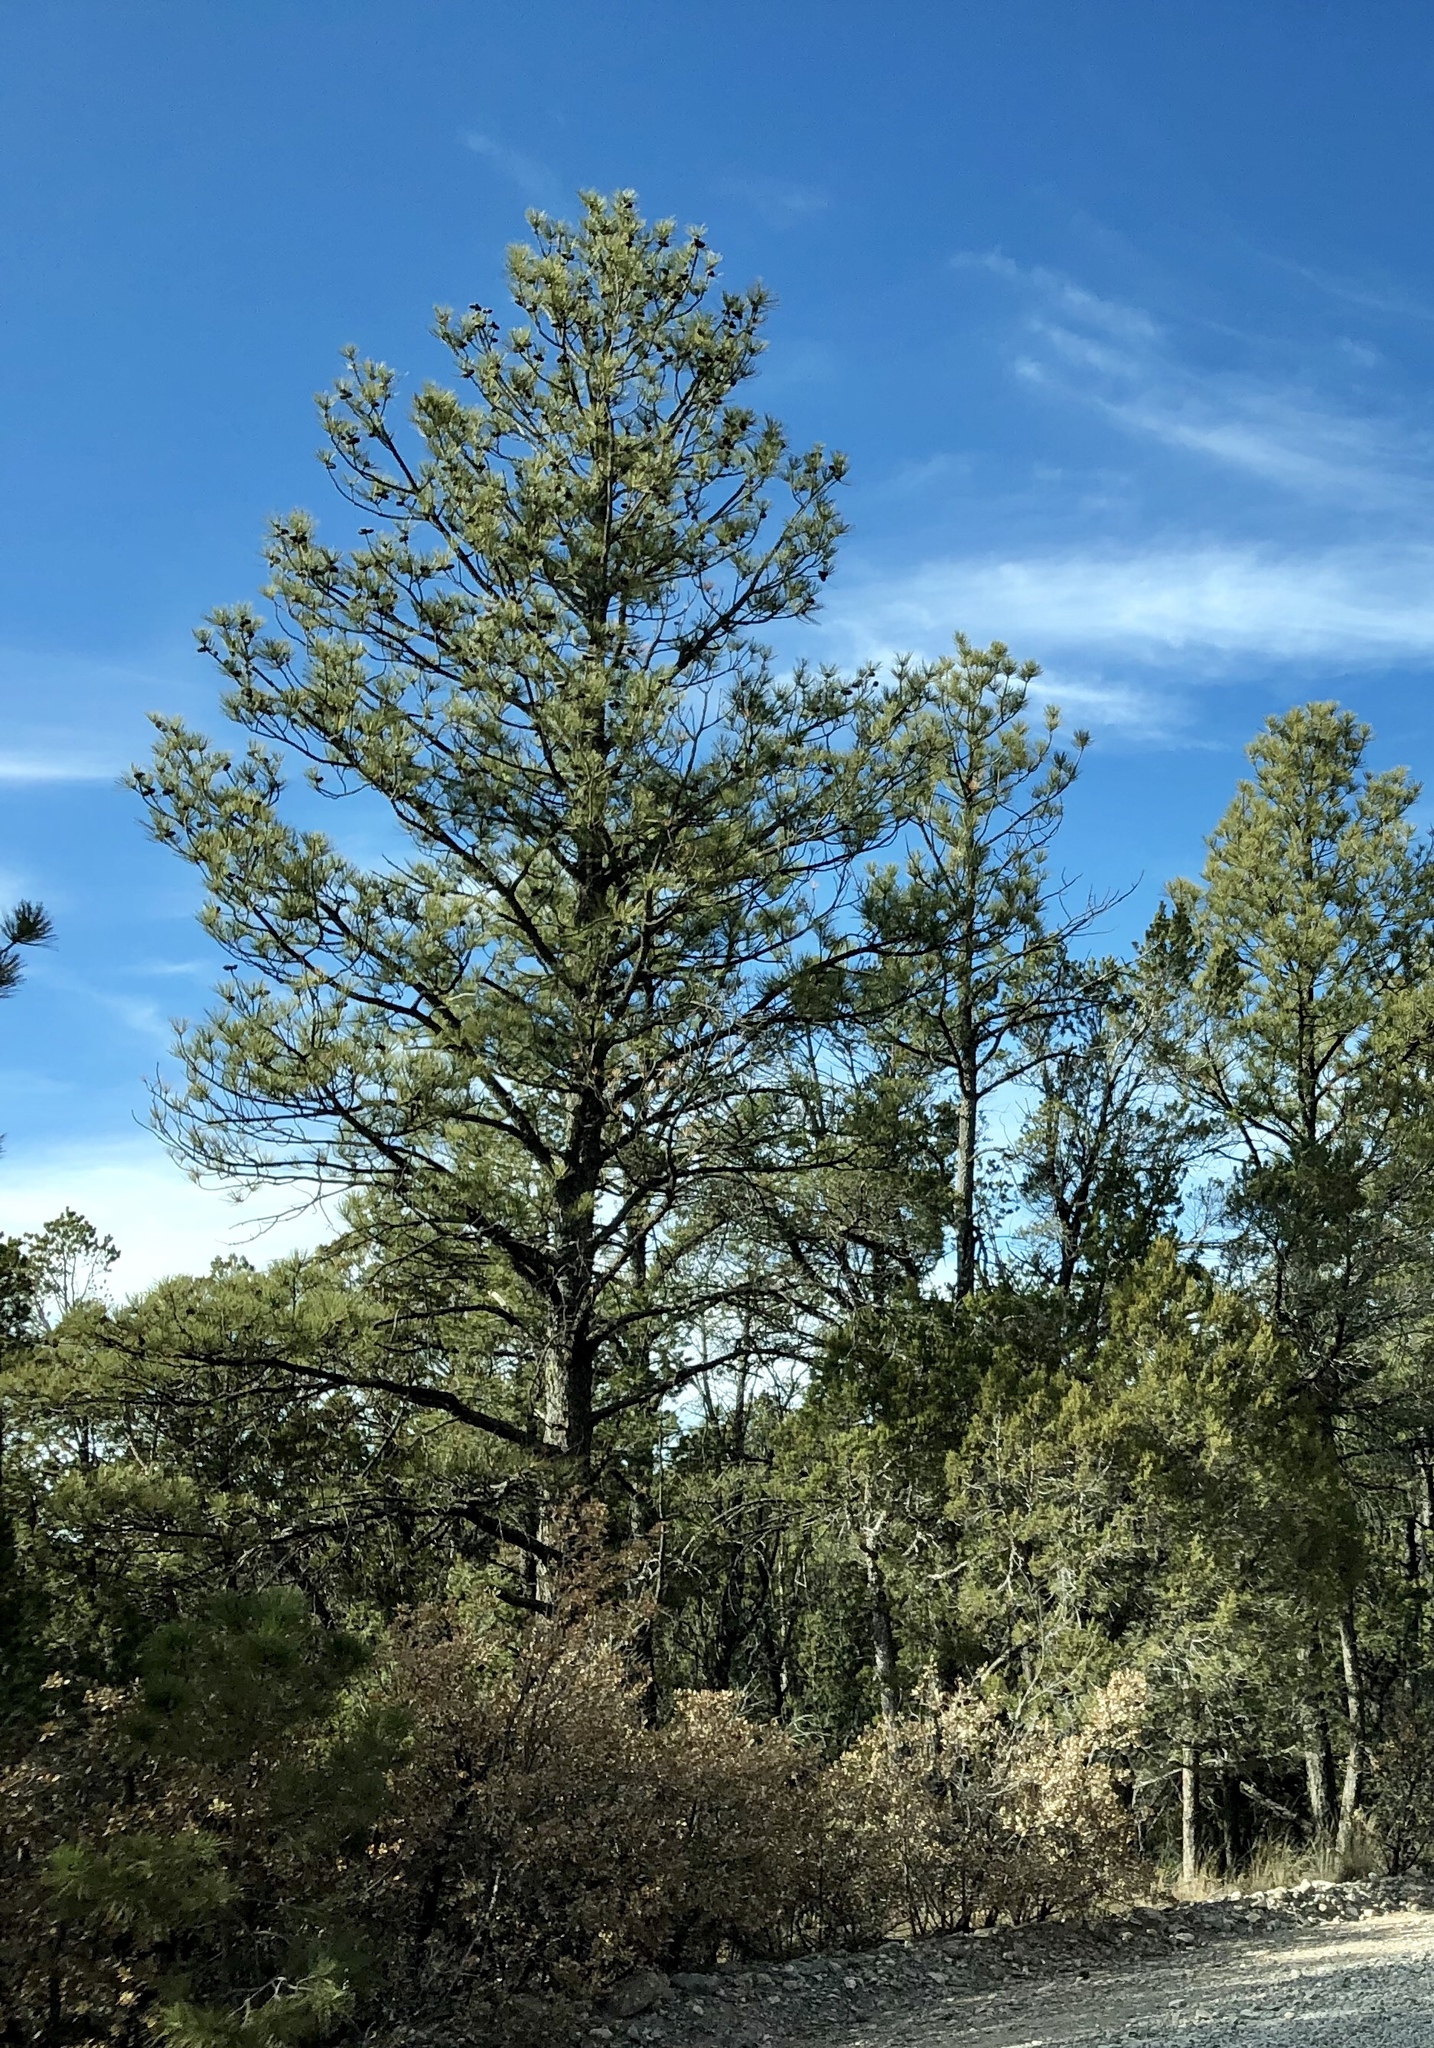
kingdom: Plantae
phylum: Tracheophyta
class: Pinopsida
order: Pinales
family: Pinaceae
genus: Pinus
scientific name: Pinus ponderosa
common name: Western yellow-pine
